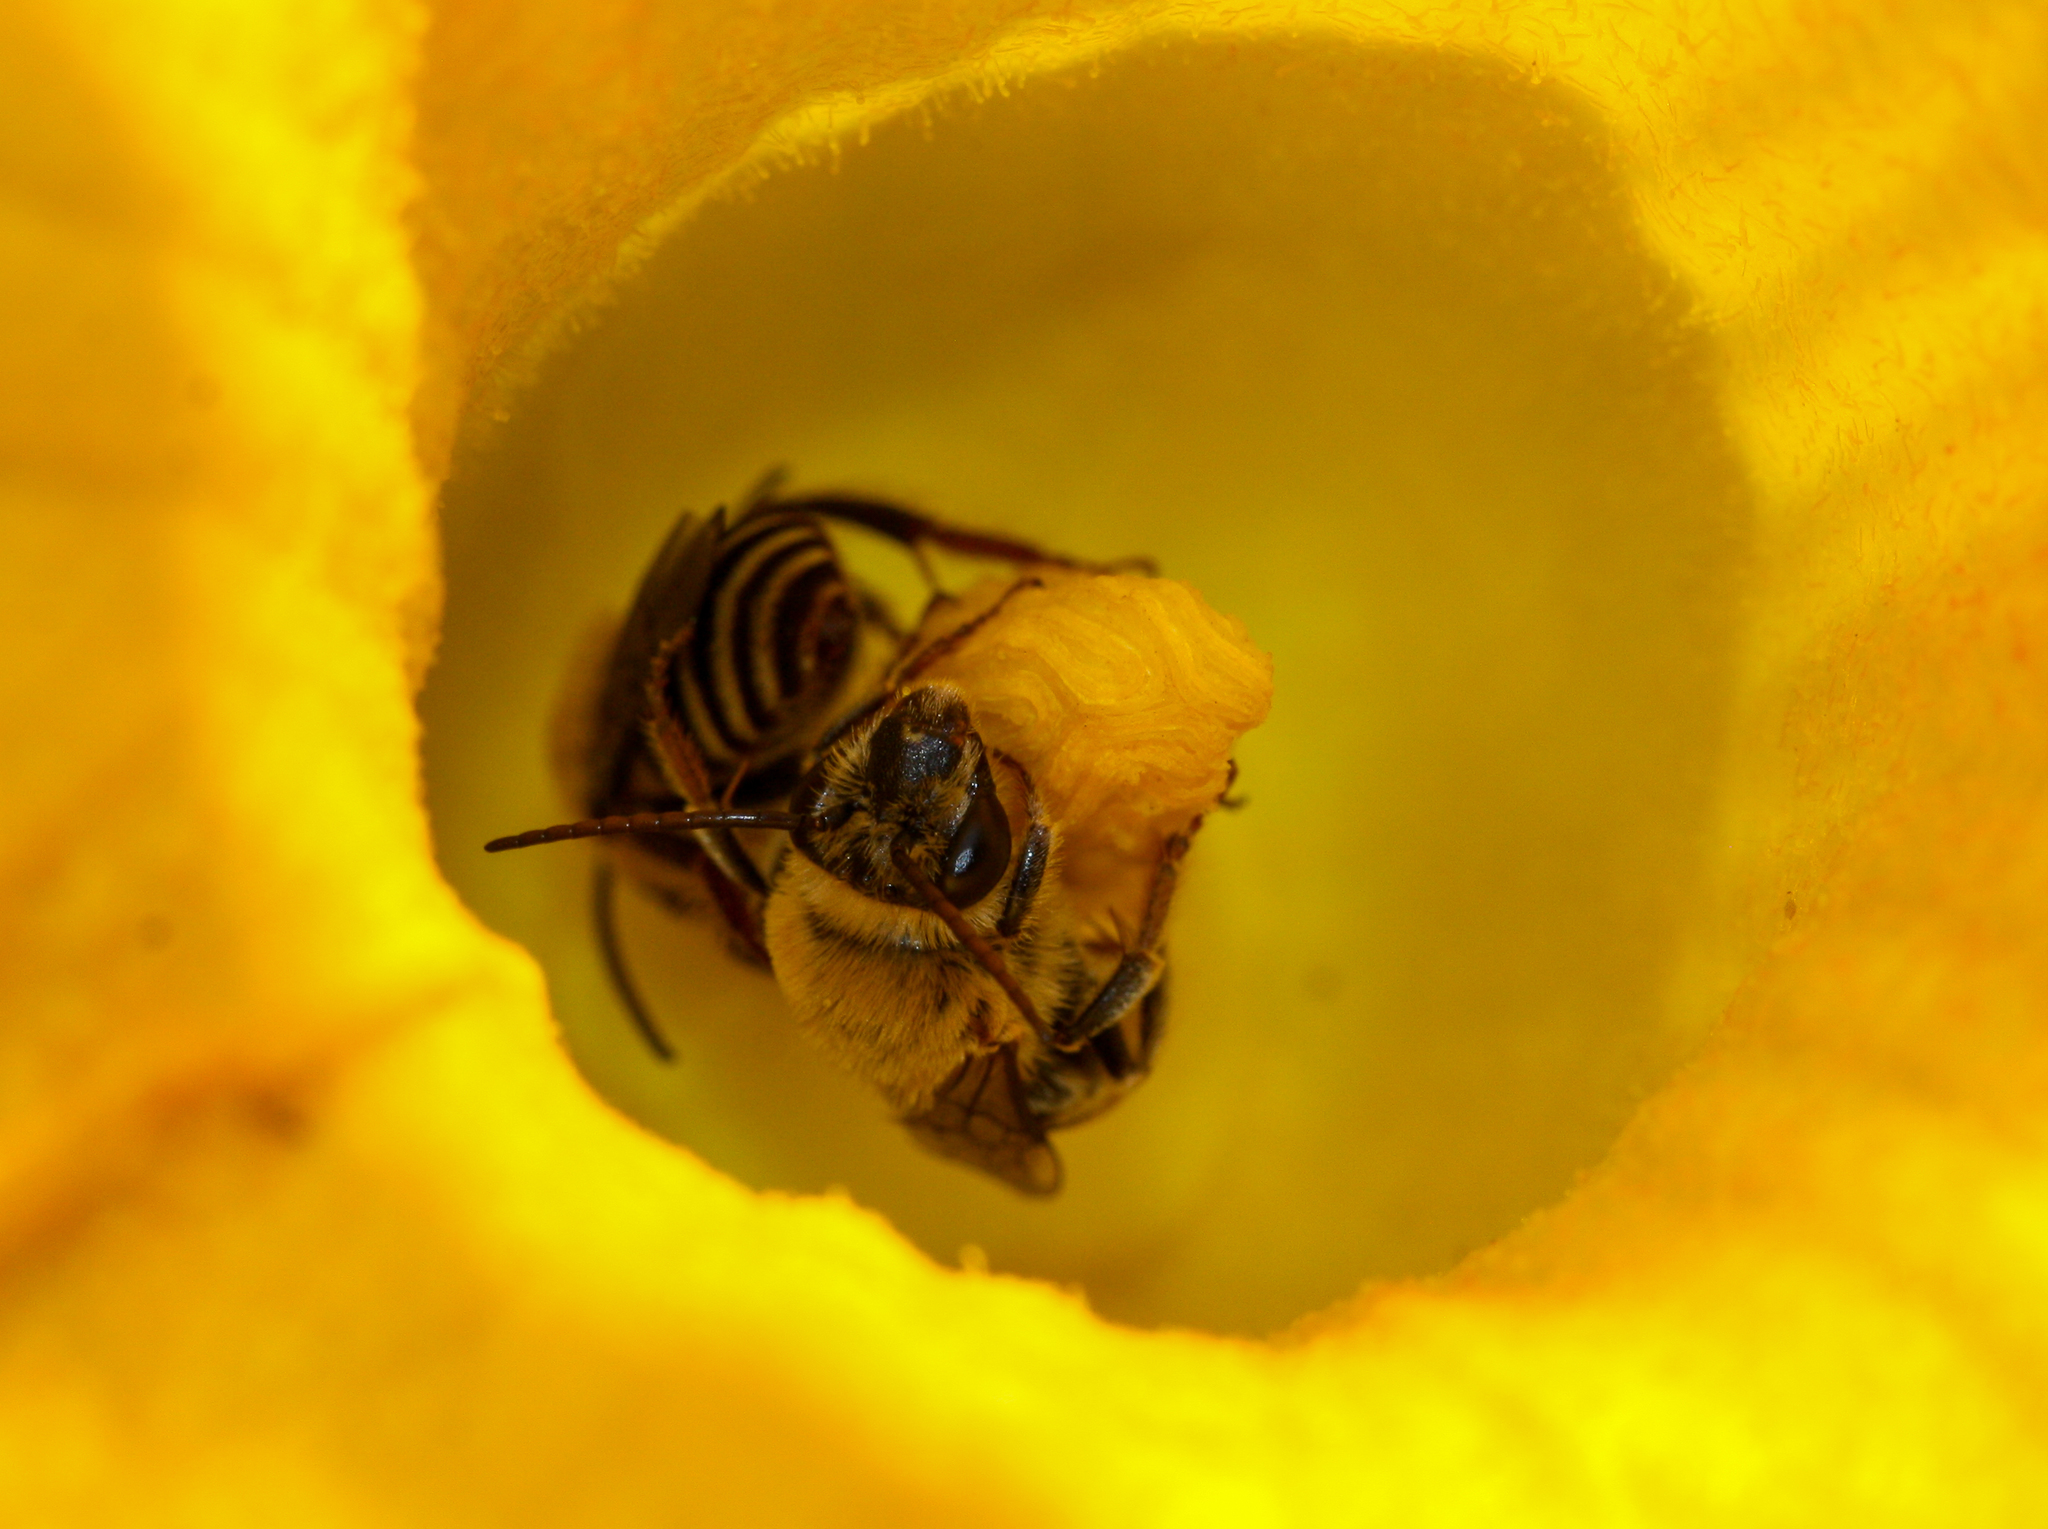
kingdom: Animalia
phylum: Arthropoda
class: Insecta
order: Hymenoptera
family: Apidae
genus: Peponapis
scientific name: Peponapis pruinosa
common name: Pruinose squash bee
